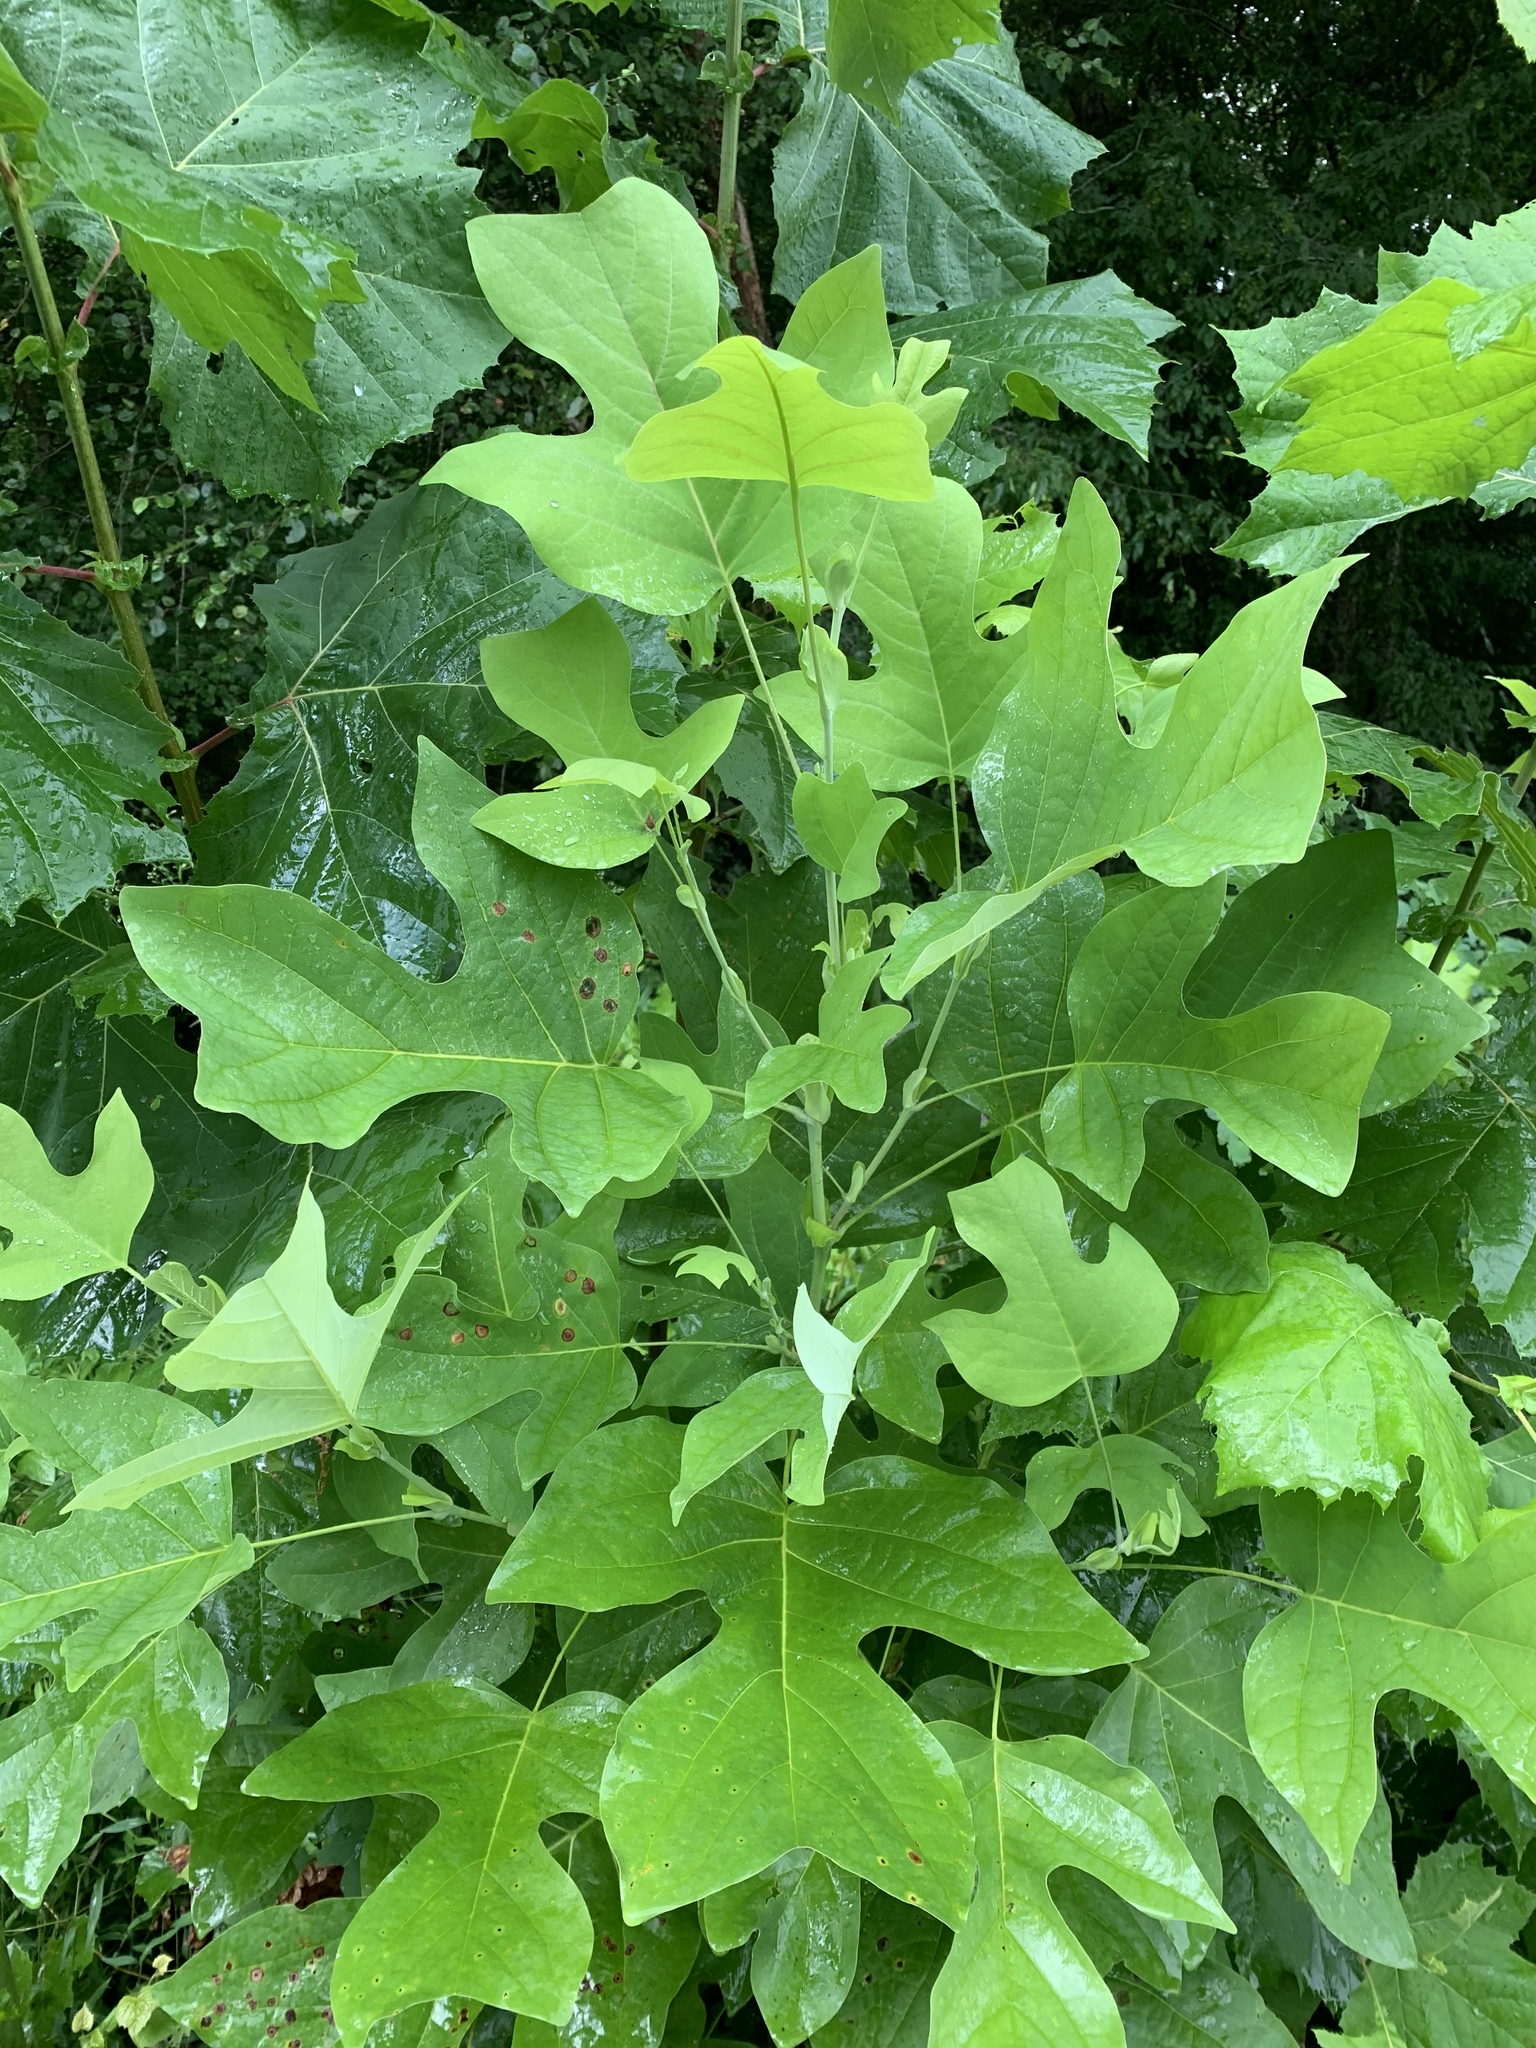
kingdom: Plantae
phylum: Tracheophyta
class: Magnoliopsida
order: Magnoliales
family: Magnoliaceae
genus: Liriodendron
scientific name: Liriodendron tulipifera
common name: Tulip tree
